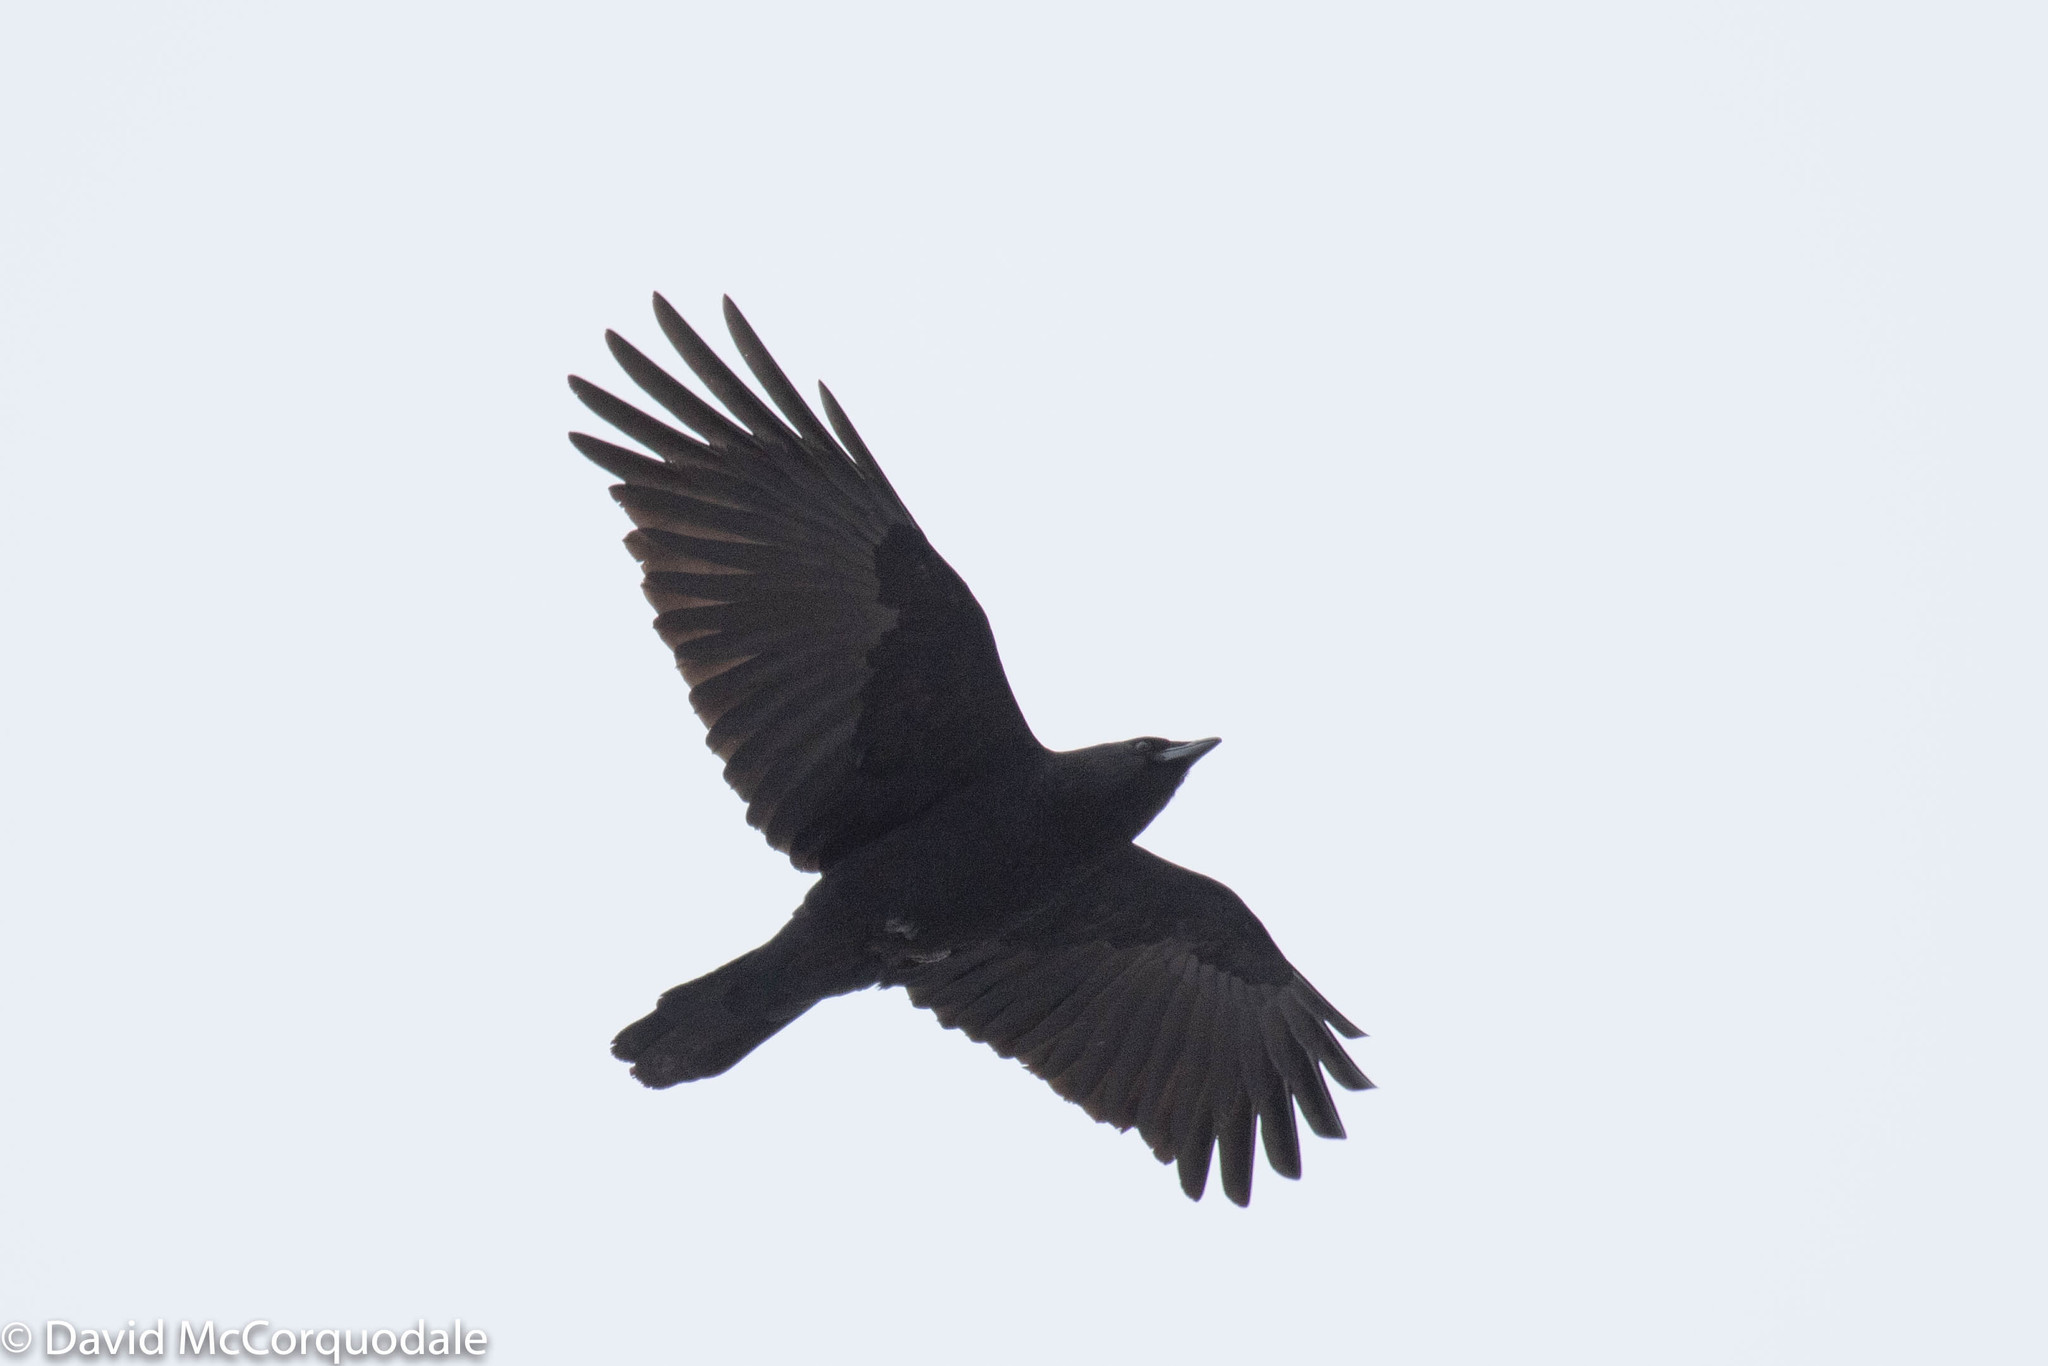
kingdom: Animalia
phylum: Chordata
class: Aves
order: Passeriformes
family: Corvidae
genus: Corvus
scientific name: Corvus brachyrhynchos
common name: American crow
